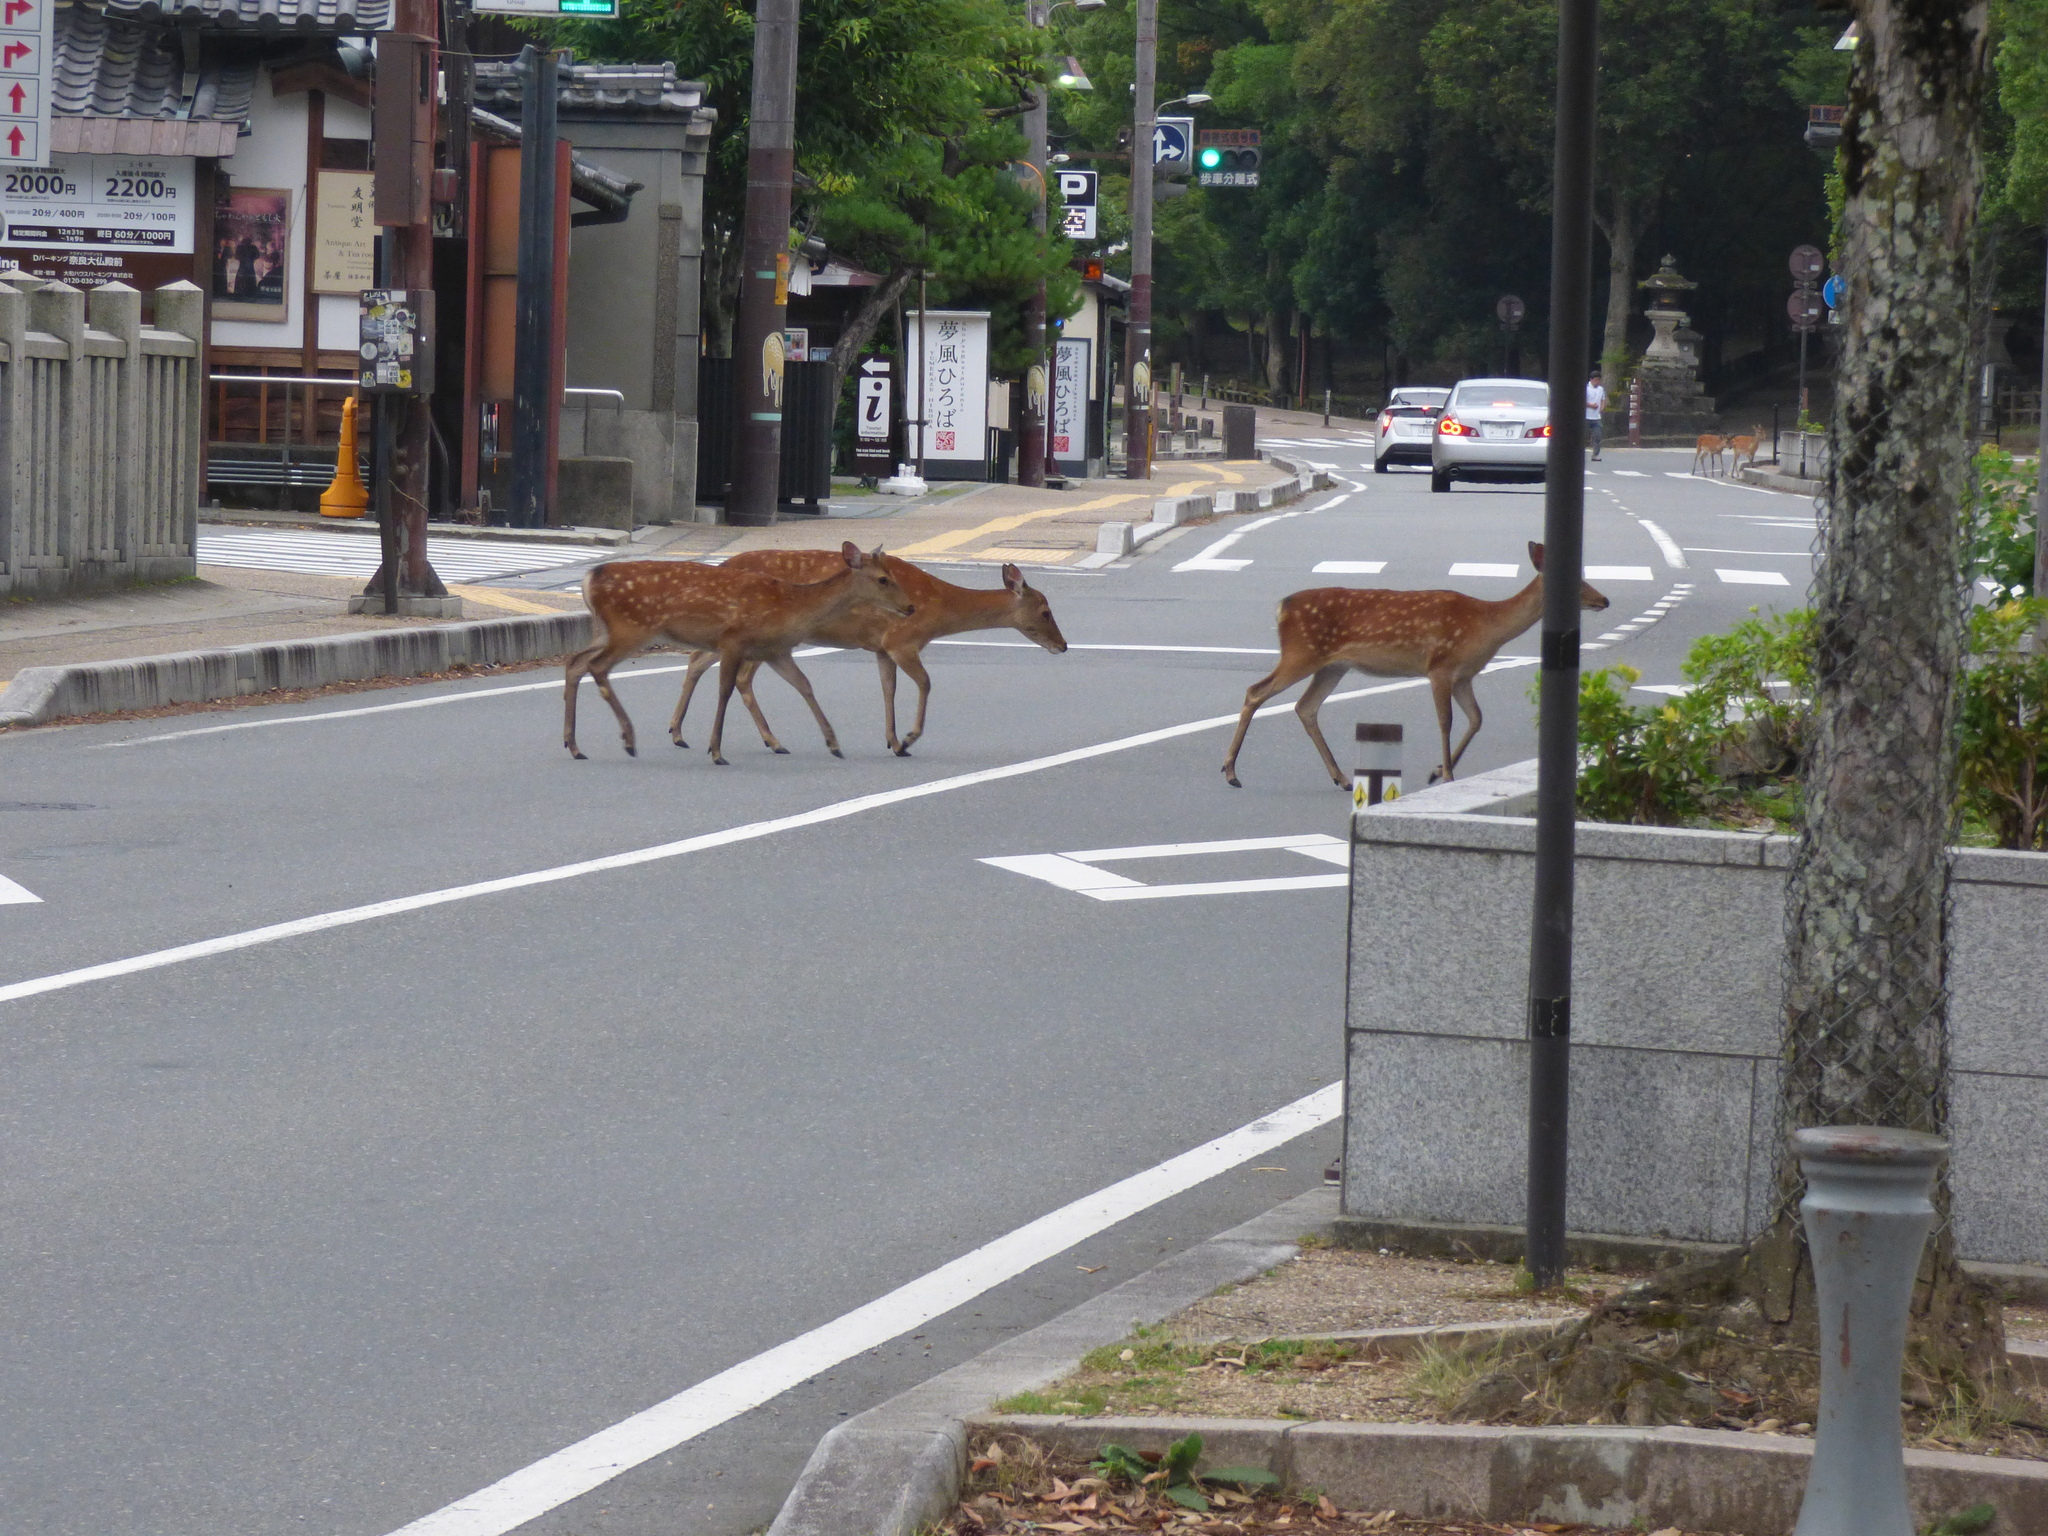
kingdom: Animalia
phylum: Chordata
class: Mammalia
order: Artiodactyla
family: Cervidae
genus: Cervus
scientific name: Cervus nippon
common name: Sika deer
